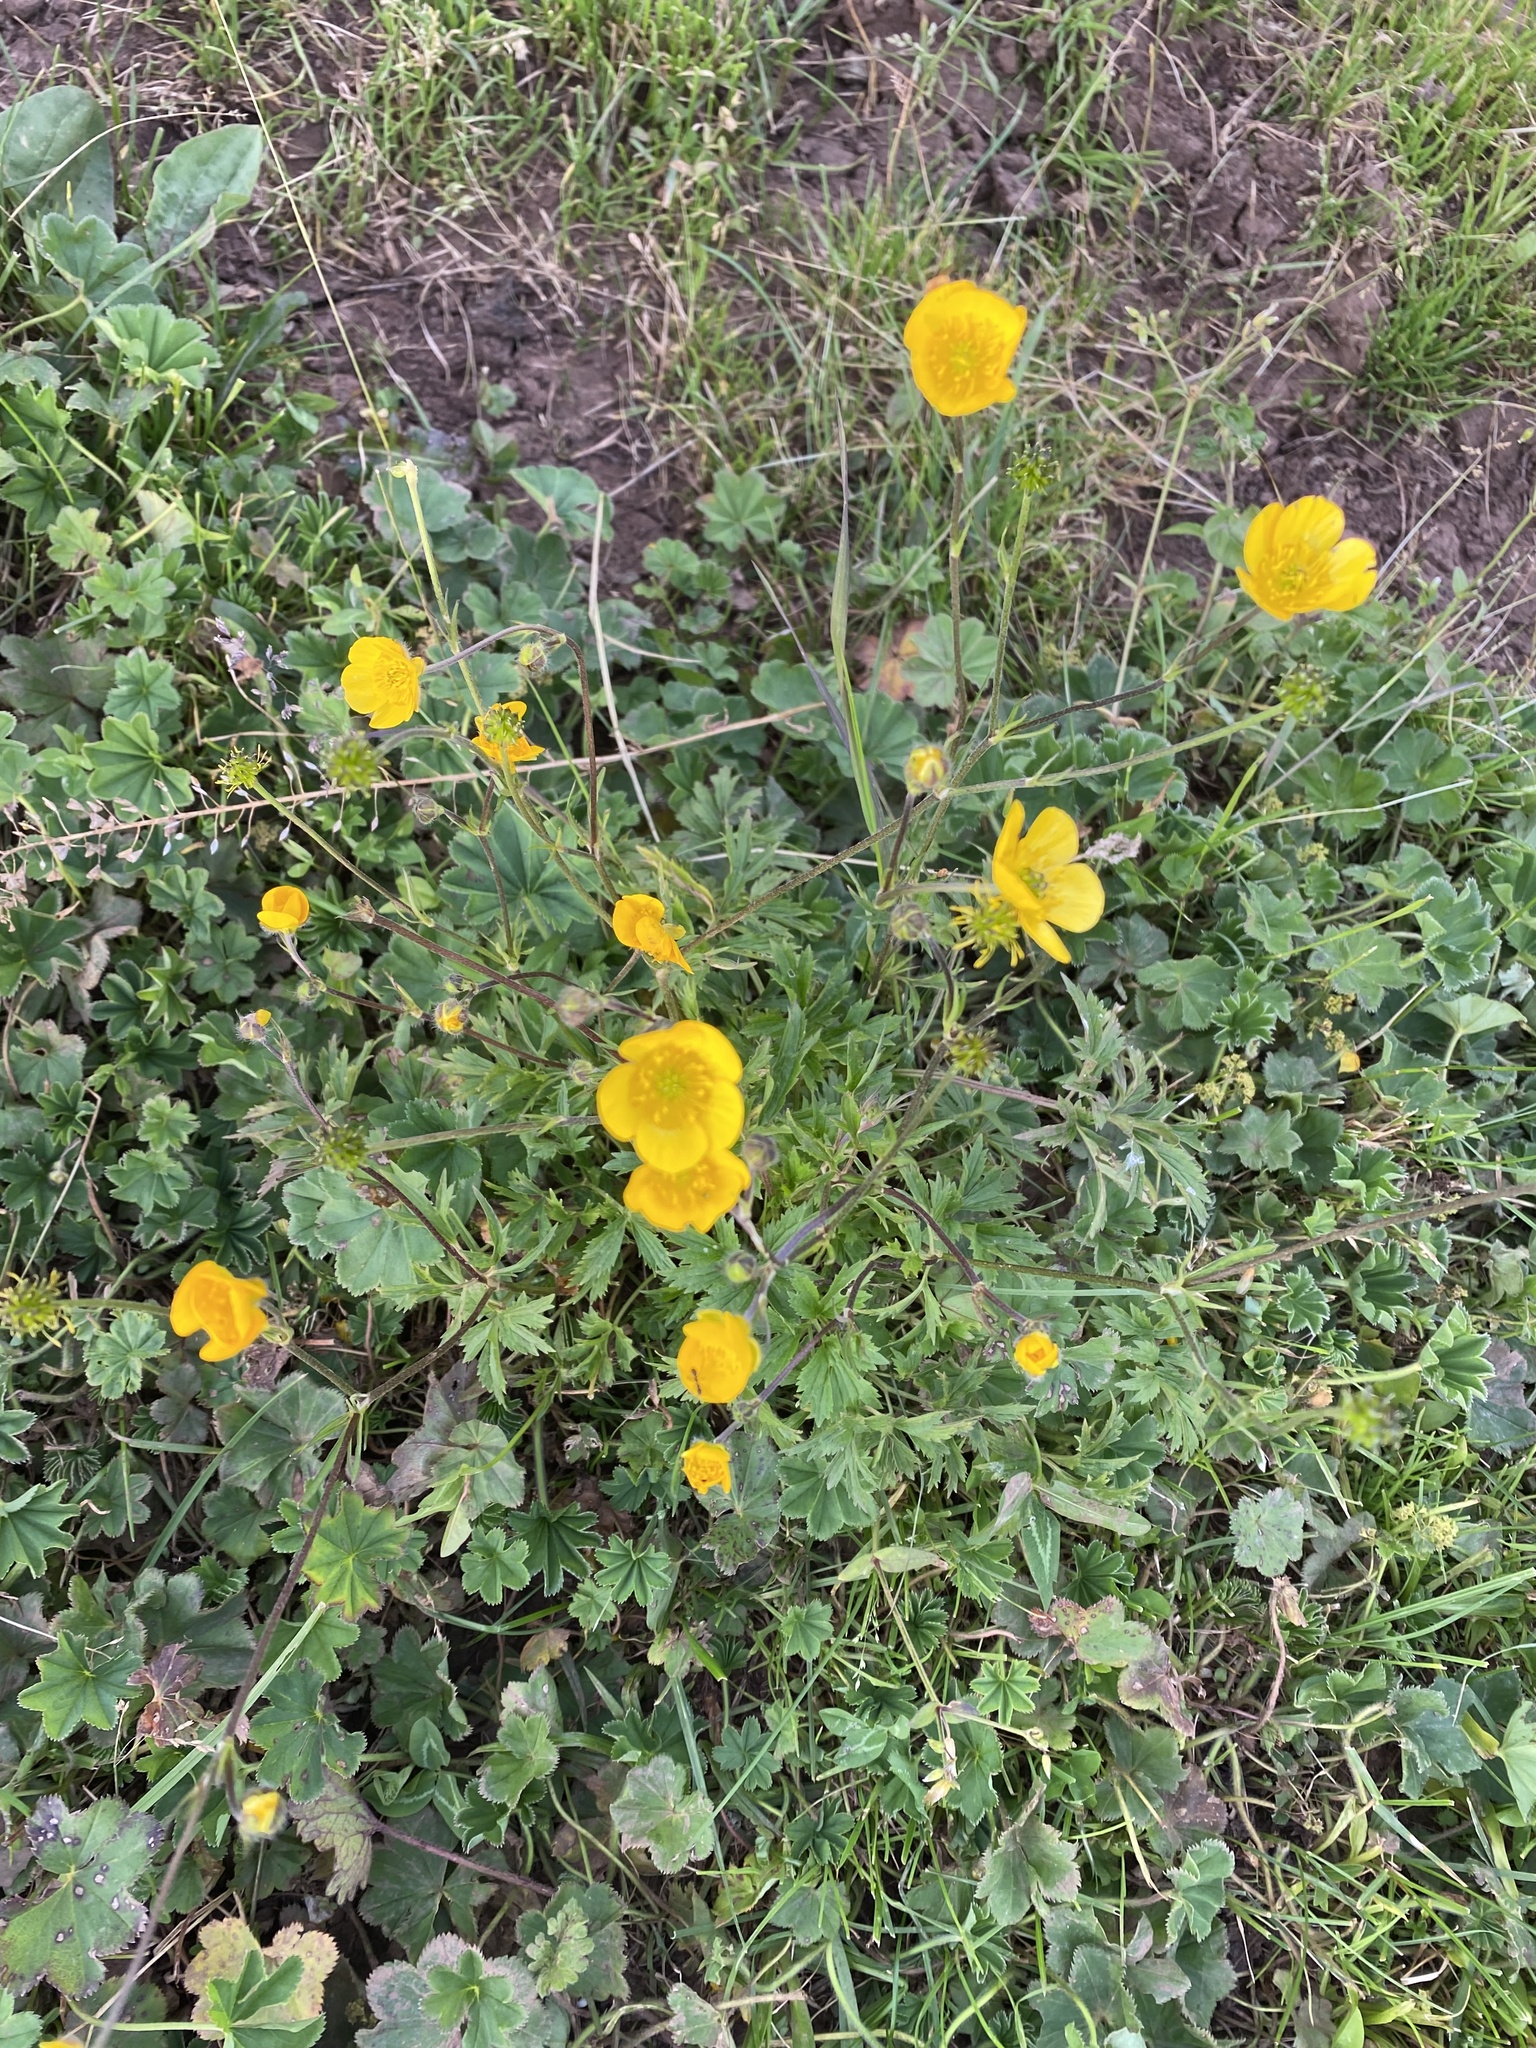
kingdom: Plantae
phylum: Tracheophyta
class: Magnoliopsida
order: Ranunculales
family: Ranunculaceae
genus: Ranunculus
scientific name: Ranunculus repens
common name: Creeping buttercup
